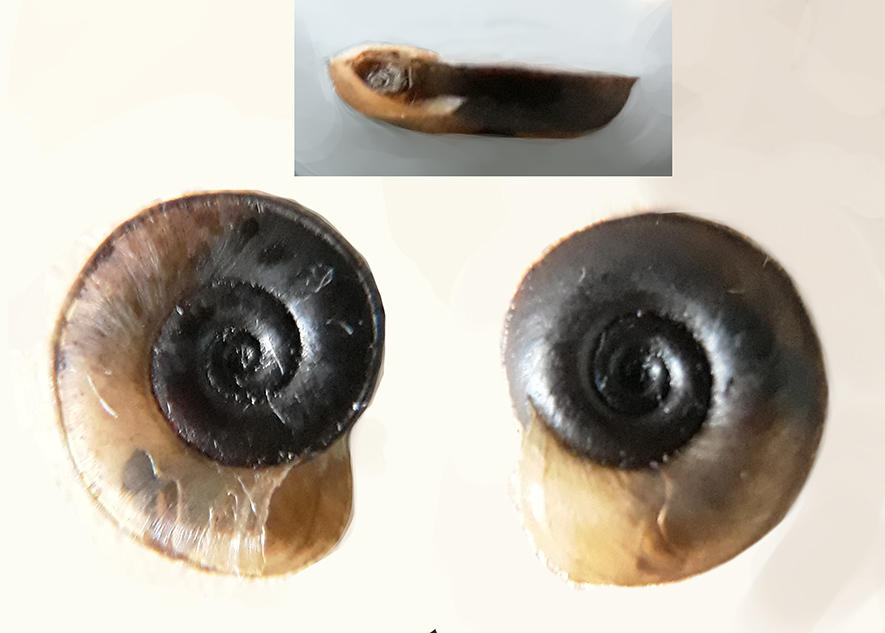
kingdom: Animalia
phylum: Mollusca
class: Gastropoda
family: Planorbidae
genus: Planorbis
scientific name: Planorbis planorbis
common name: Margined ramshorn
